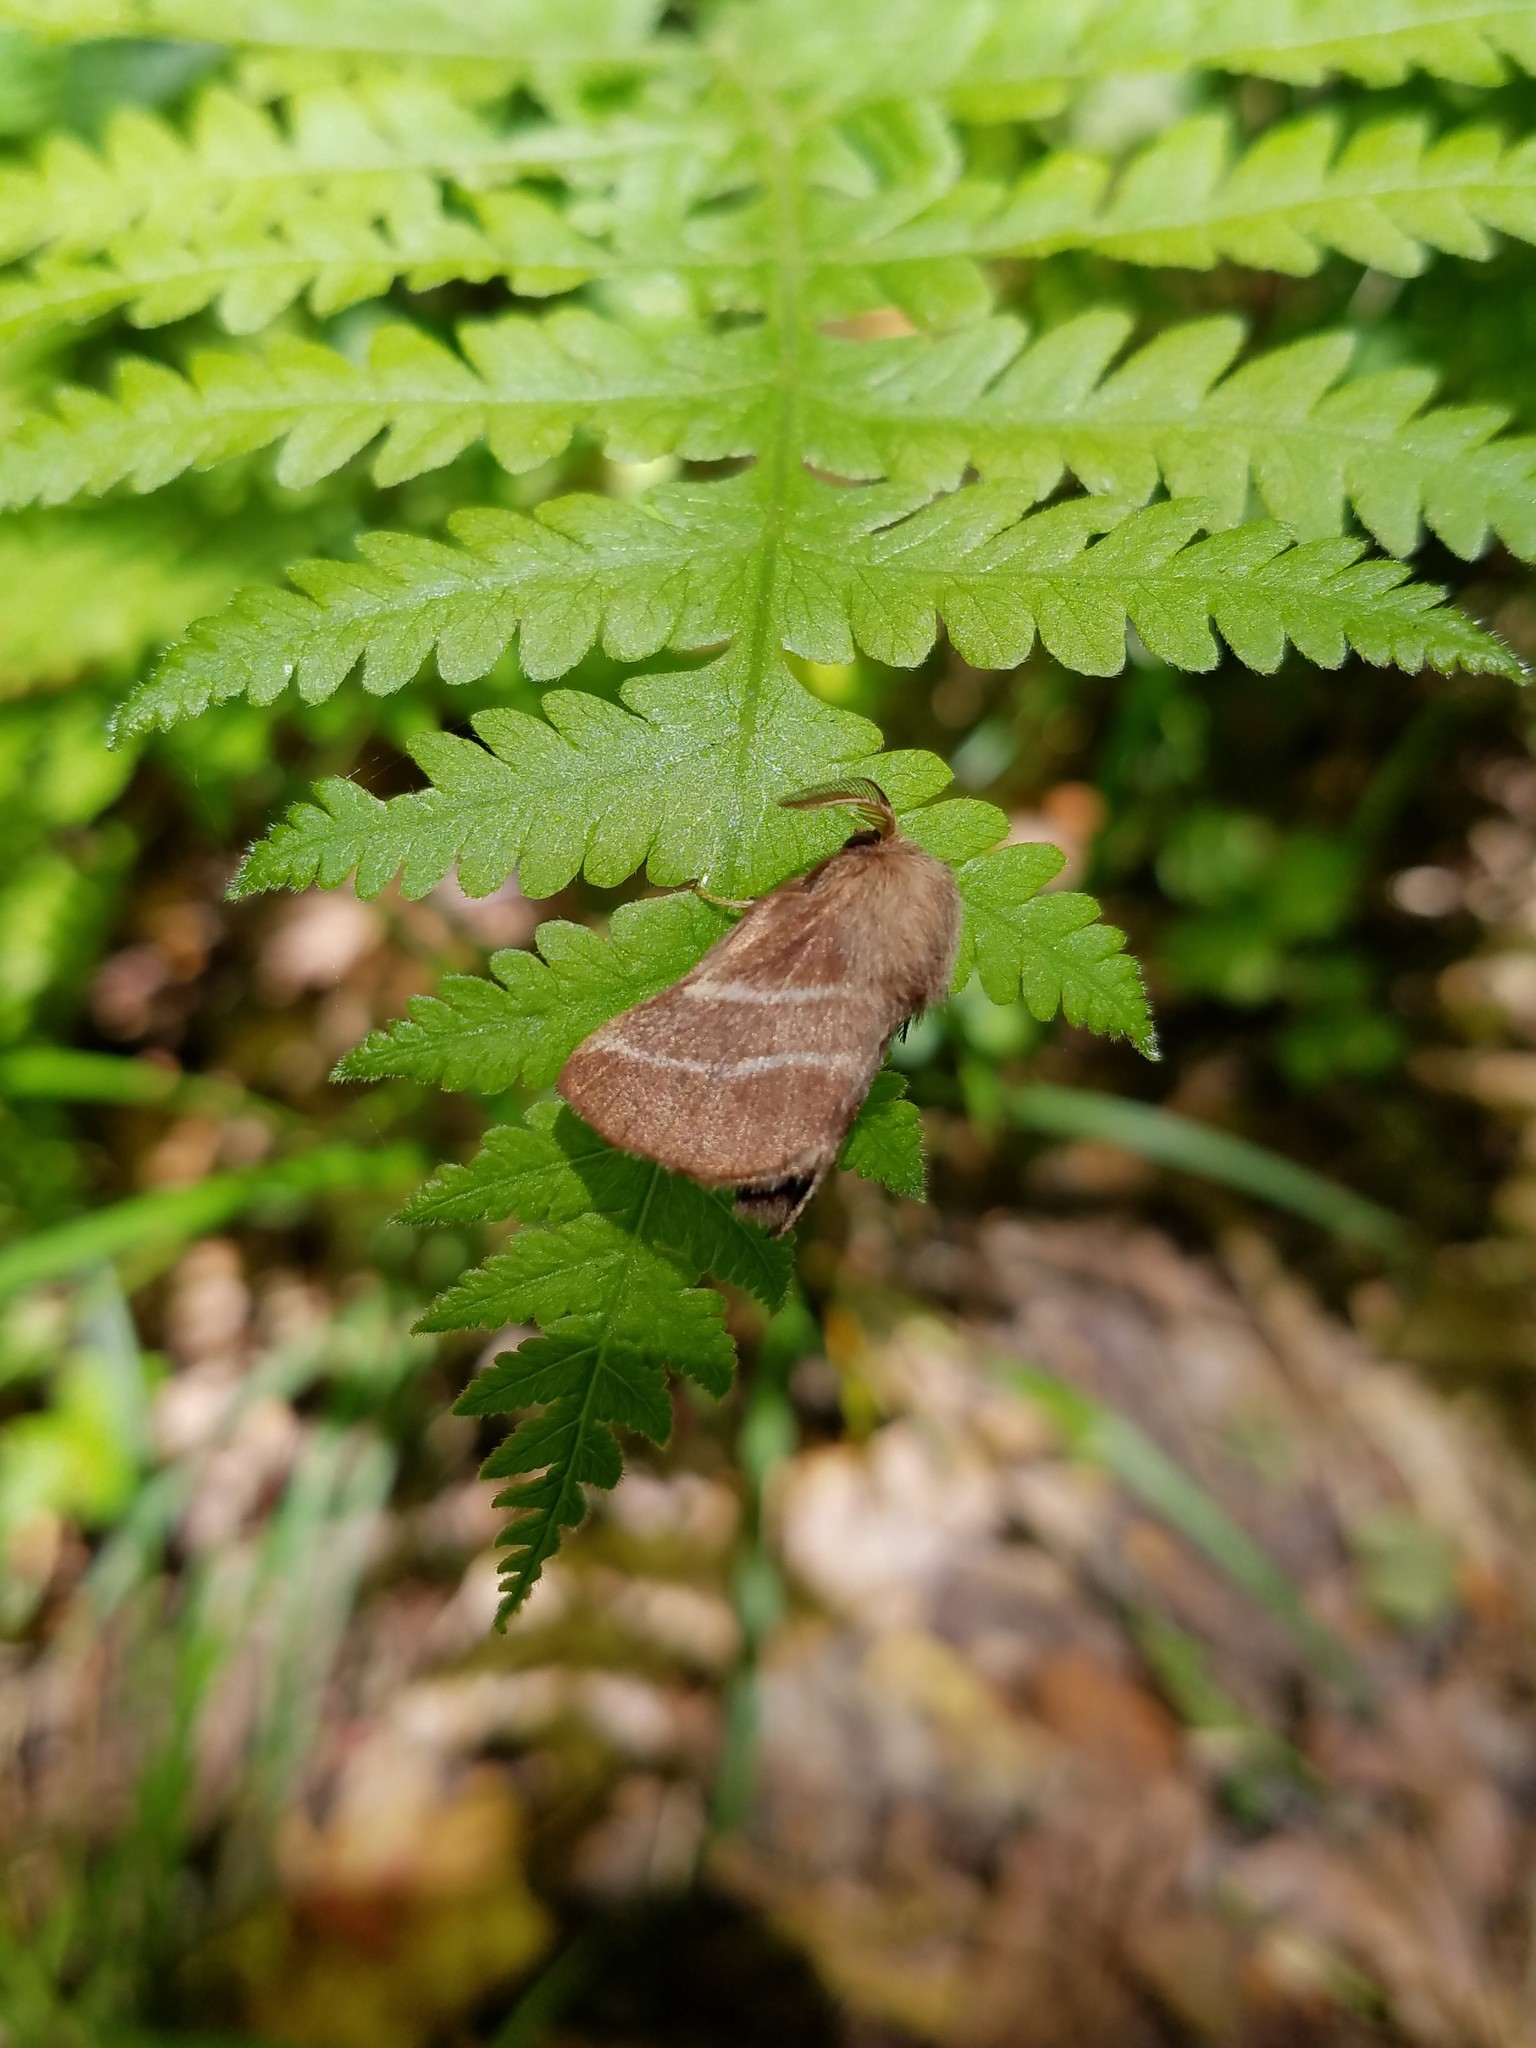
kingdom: Animalia
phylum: Arthropoda
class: Insecta
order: Lepidoptera
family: Lasiocampidae
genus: Malacosoma
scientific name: Malacosoma americana
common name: Eastern tent caterpillar moth
